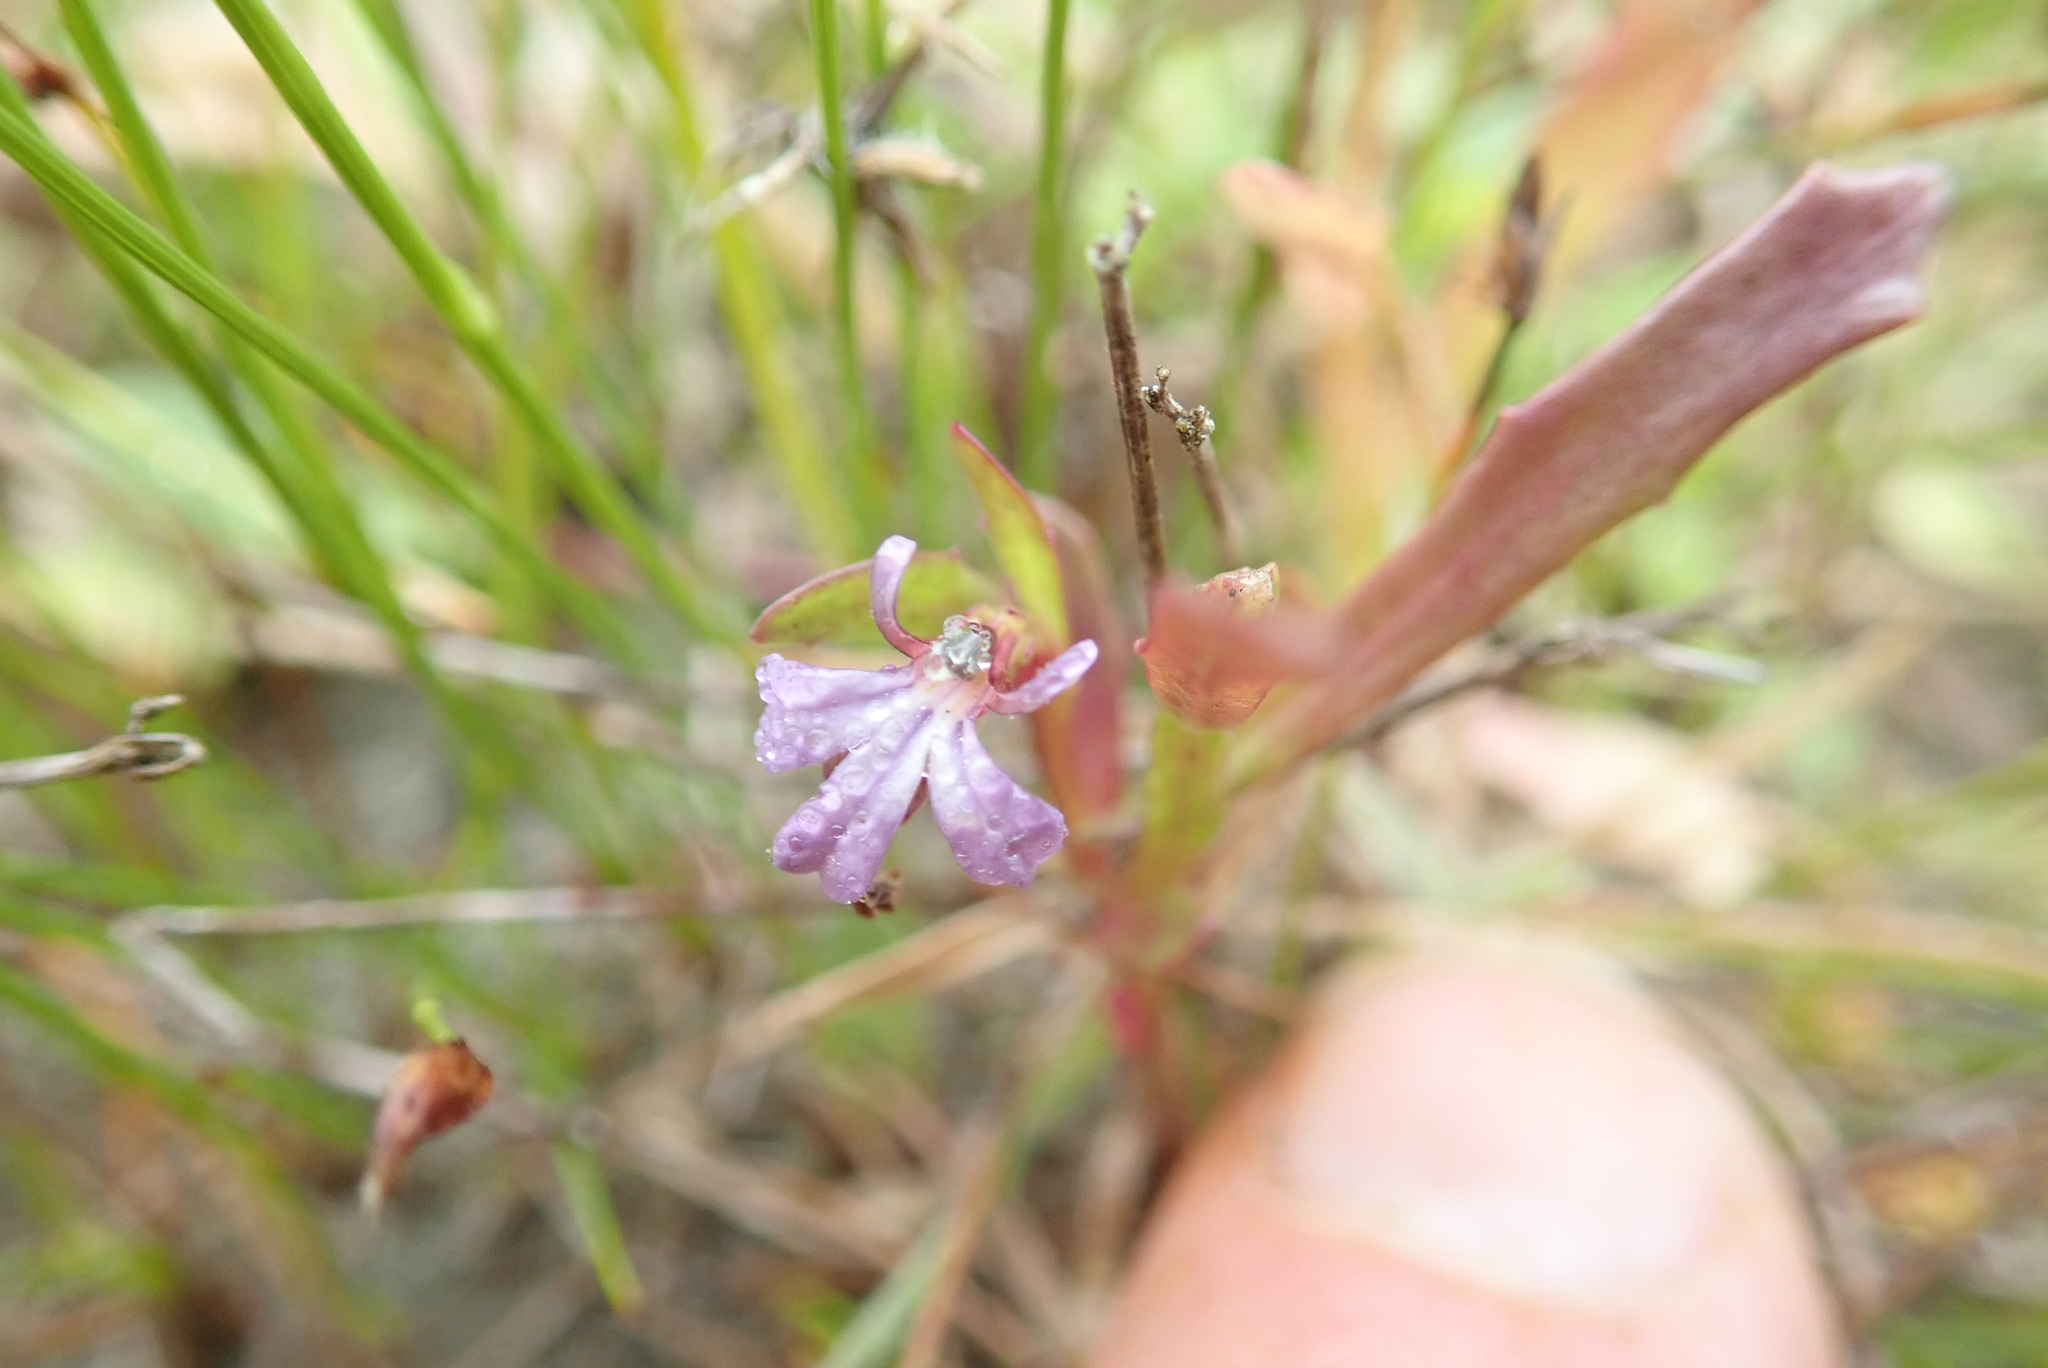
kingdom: Plantae
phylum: Tracheophyta
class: Magnoliopsida
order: Asterales
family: Campanulaceae
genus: Lobelia
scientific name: Lobelia anceps
